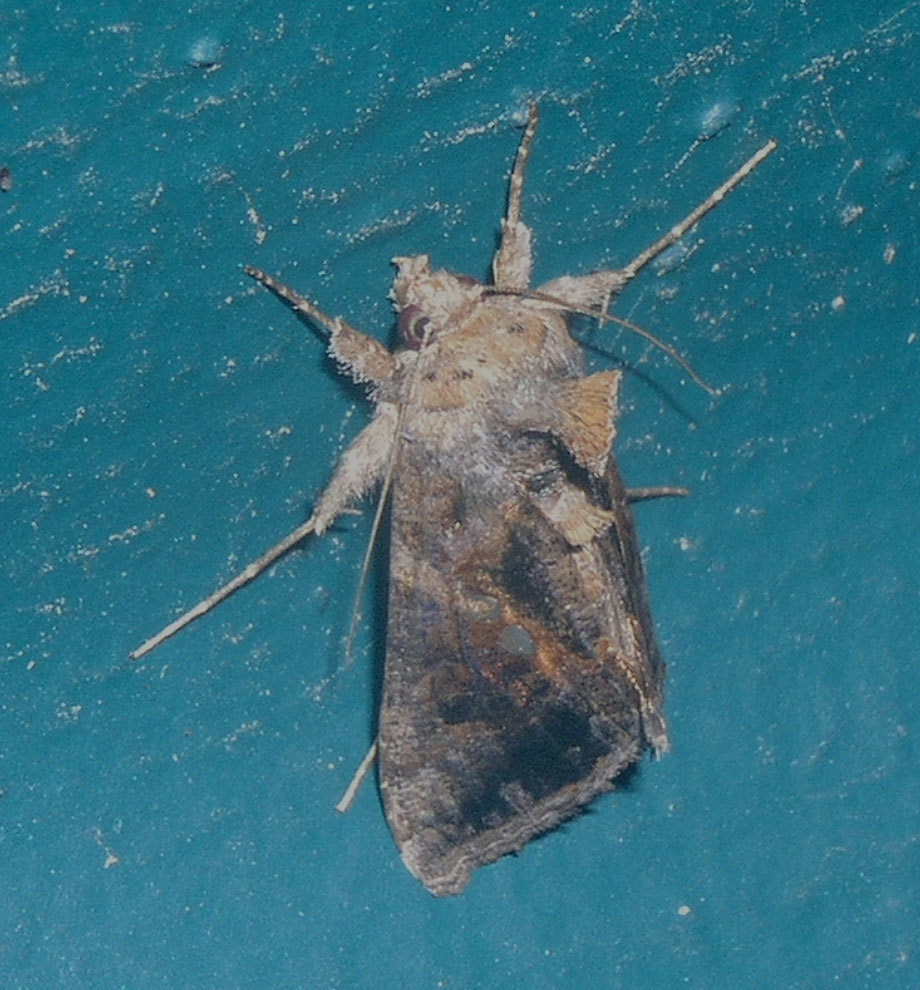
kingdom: Animalia
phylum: Arthropoda
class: Insecta
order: Lepidoptera
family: Noctuidae
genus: Chrysodeixis
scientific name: Chrysodeixis includens
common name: Cutworm moth
